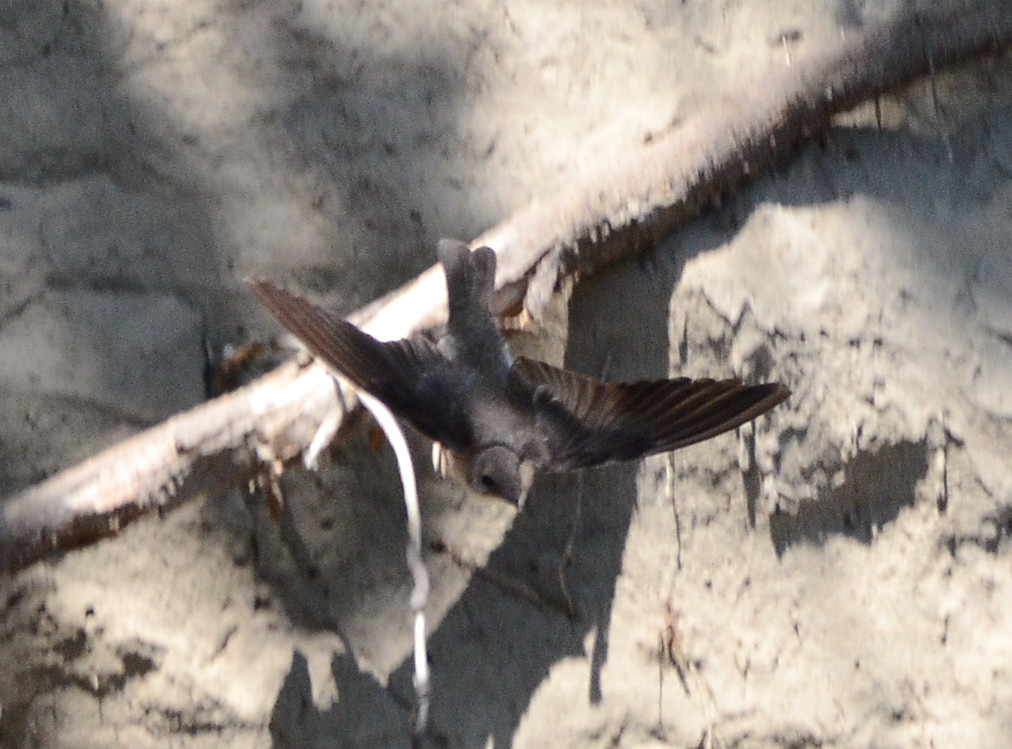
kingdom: Animalia
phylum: Chordata
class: Aves
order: Passeriformes
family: Hirundinidae
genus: Stelgidopteryx
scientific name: Stelgidopteryx serripennis
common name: Northern rough-winged swallow
